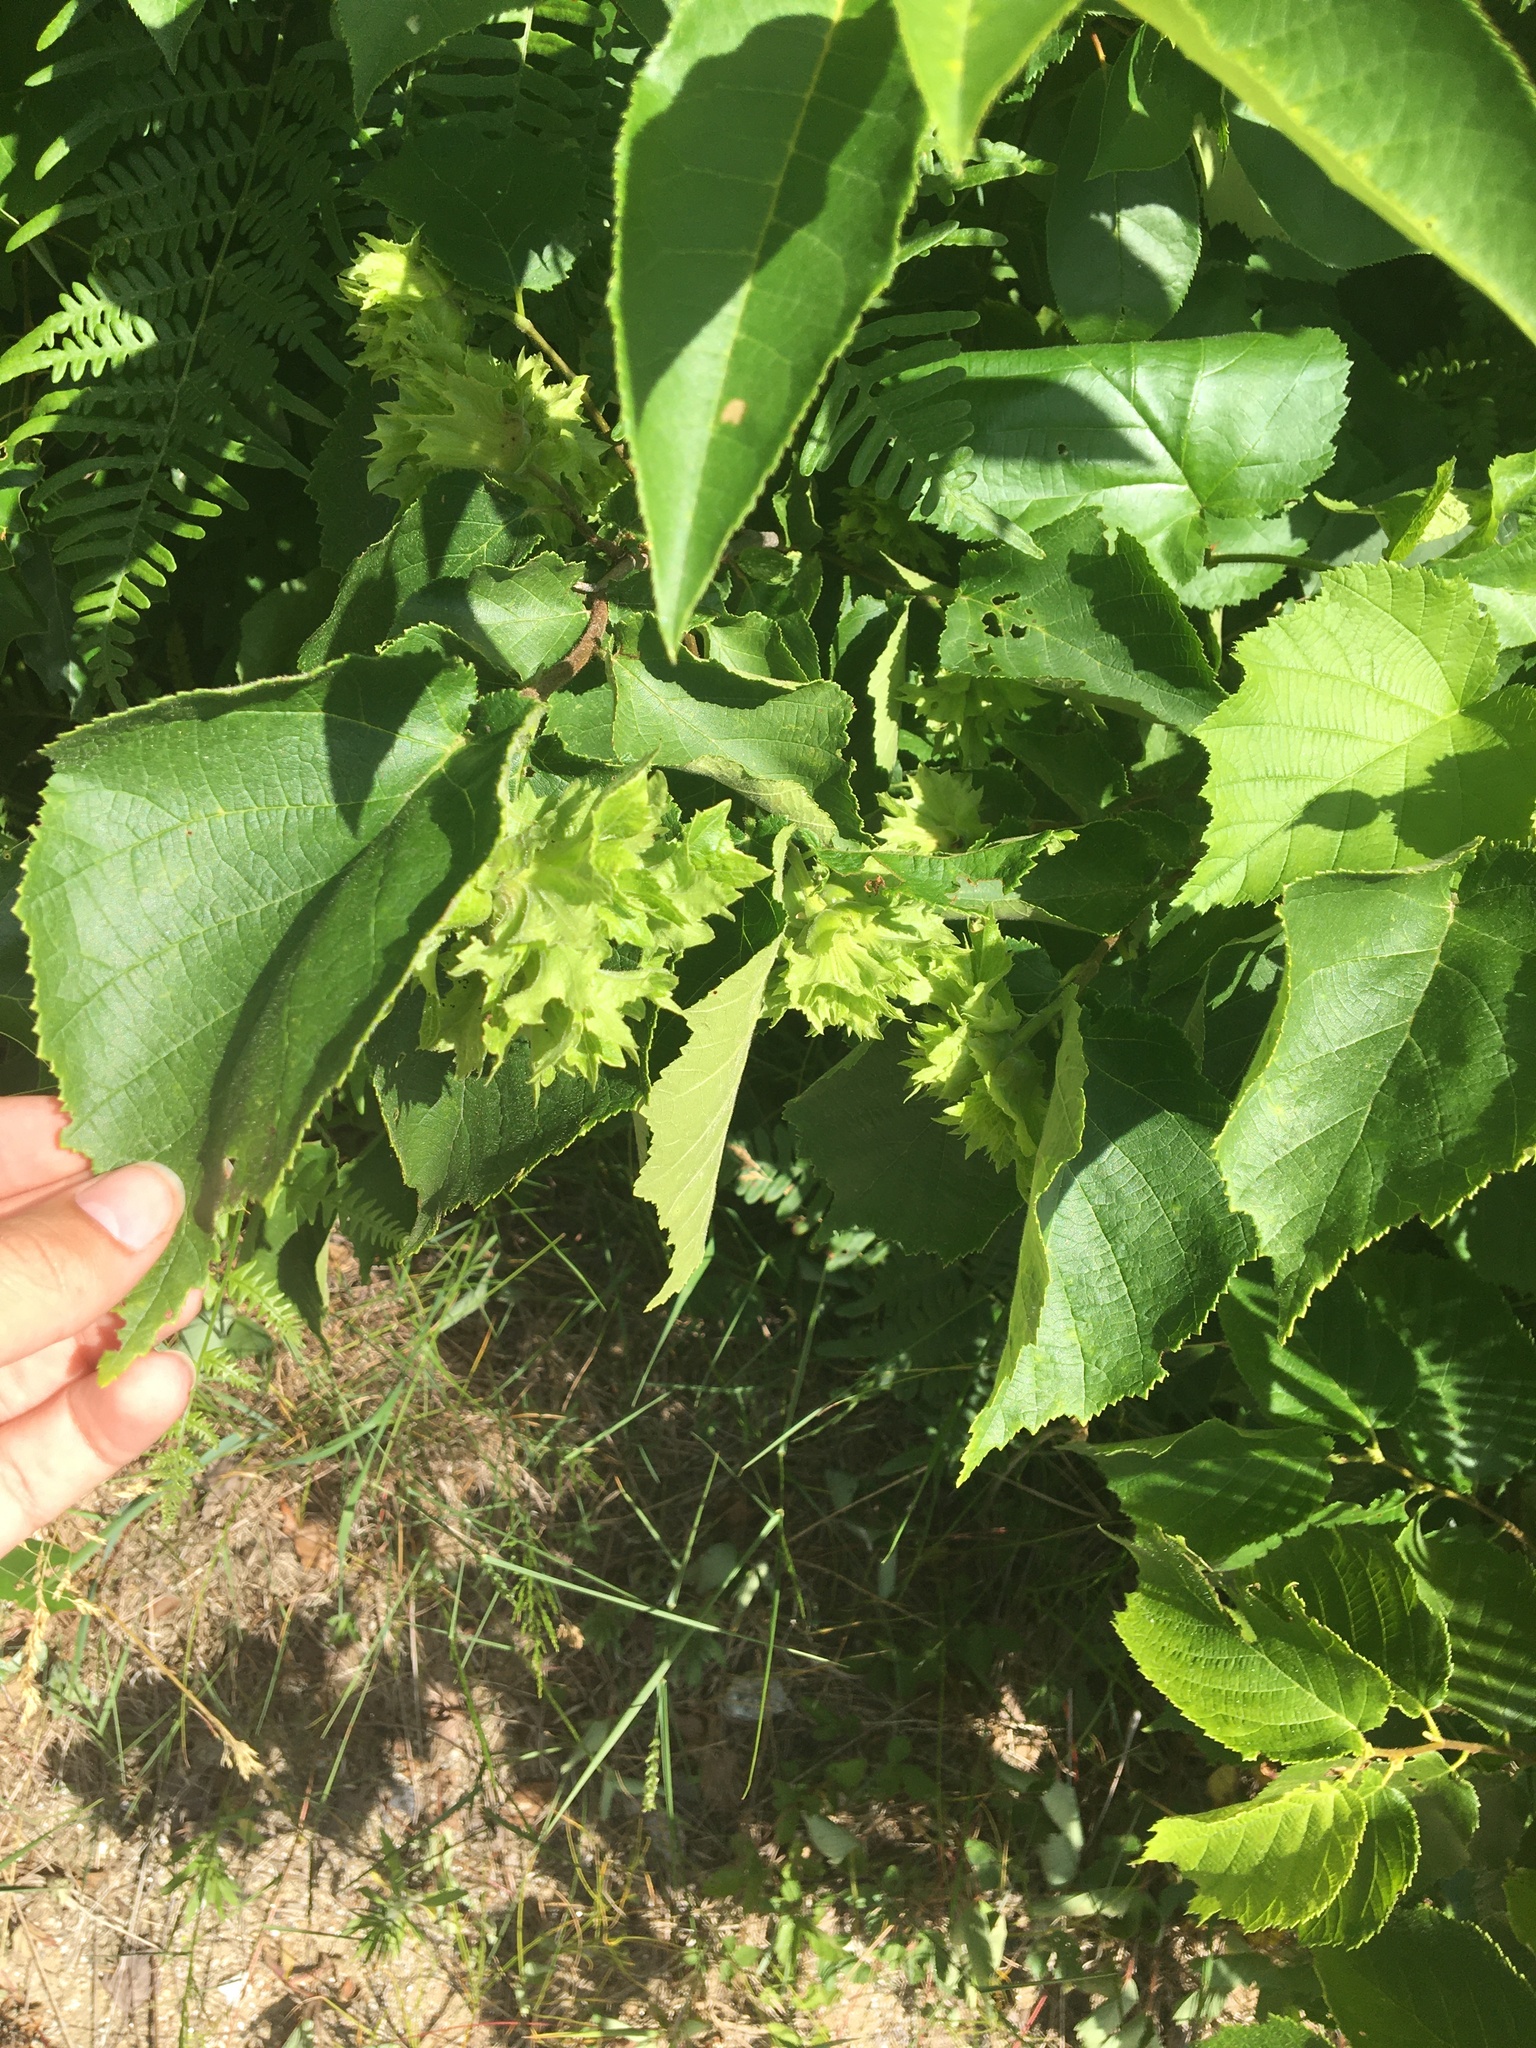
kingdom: Plantae
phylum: Tracheophyta
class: Magnoliopsida
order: Fagales
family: Betulaceae
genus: Corylus
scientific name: Corylus americana
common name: American hazel
